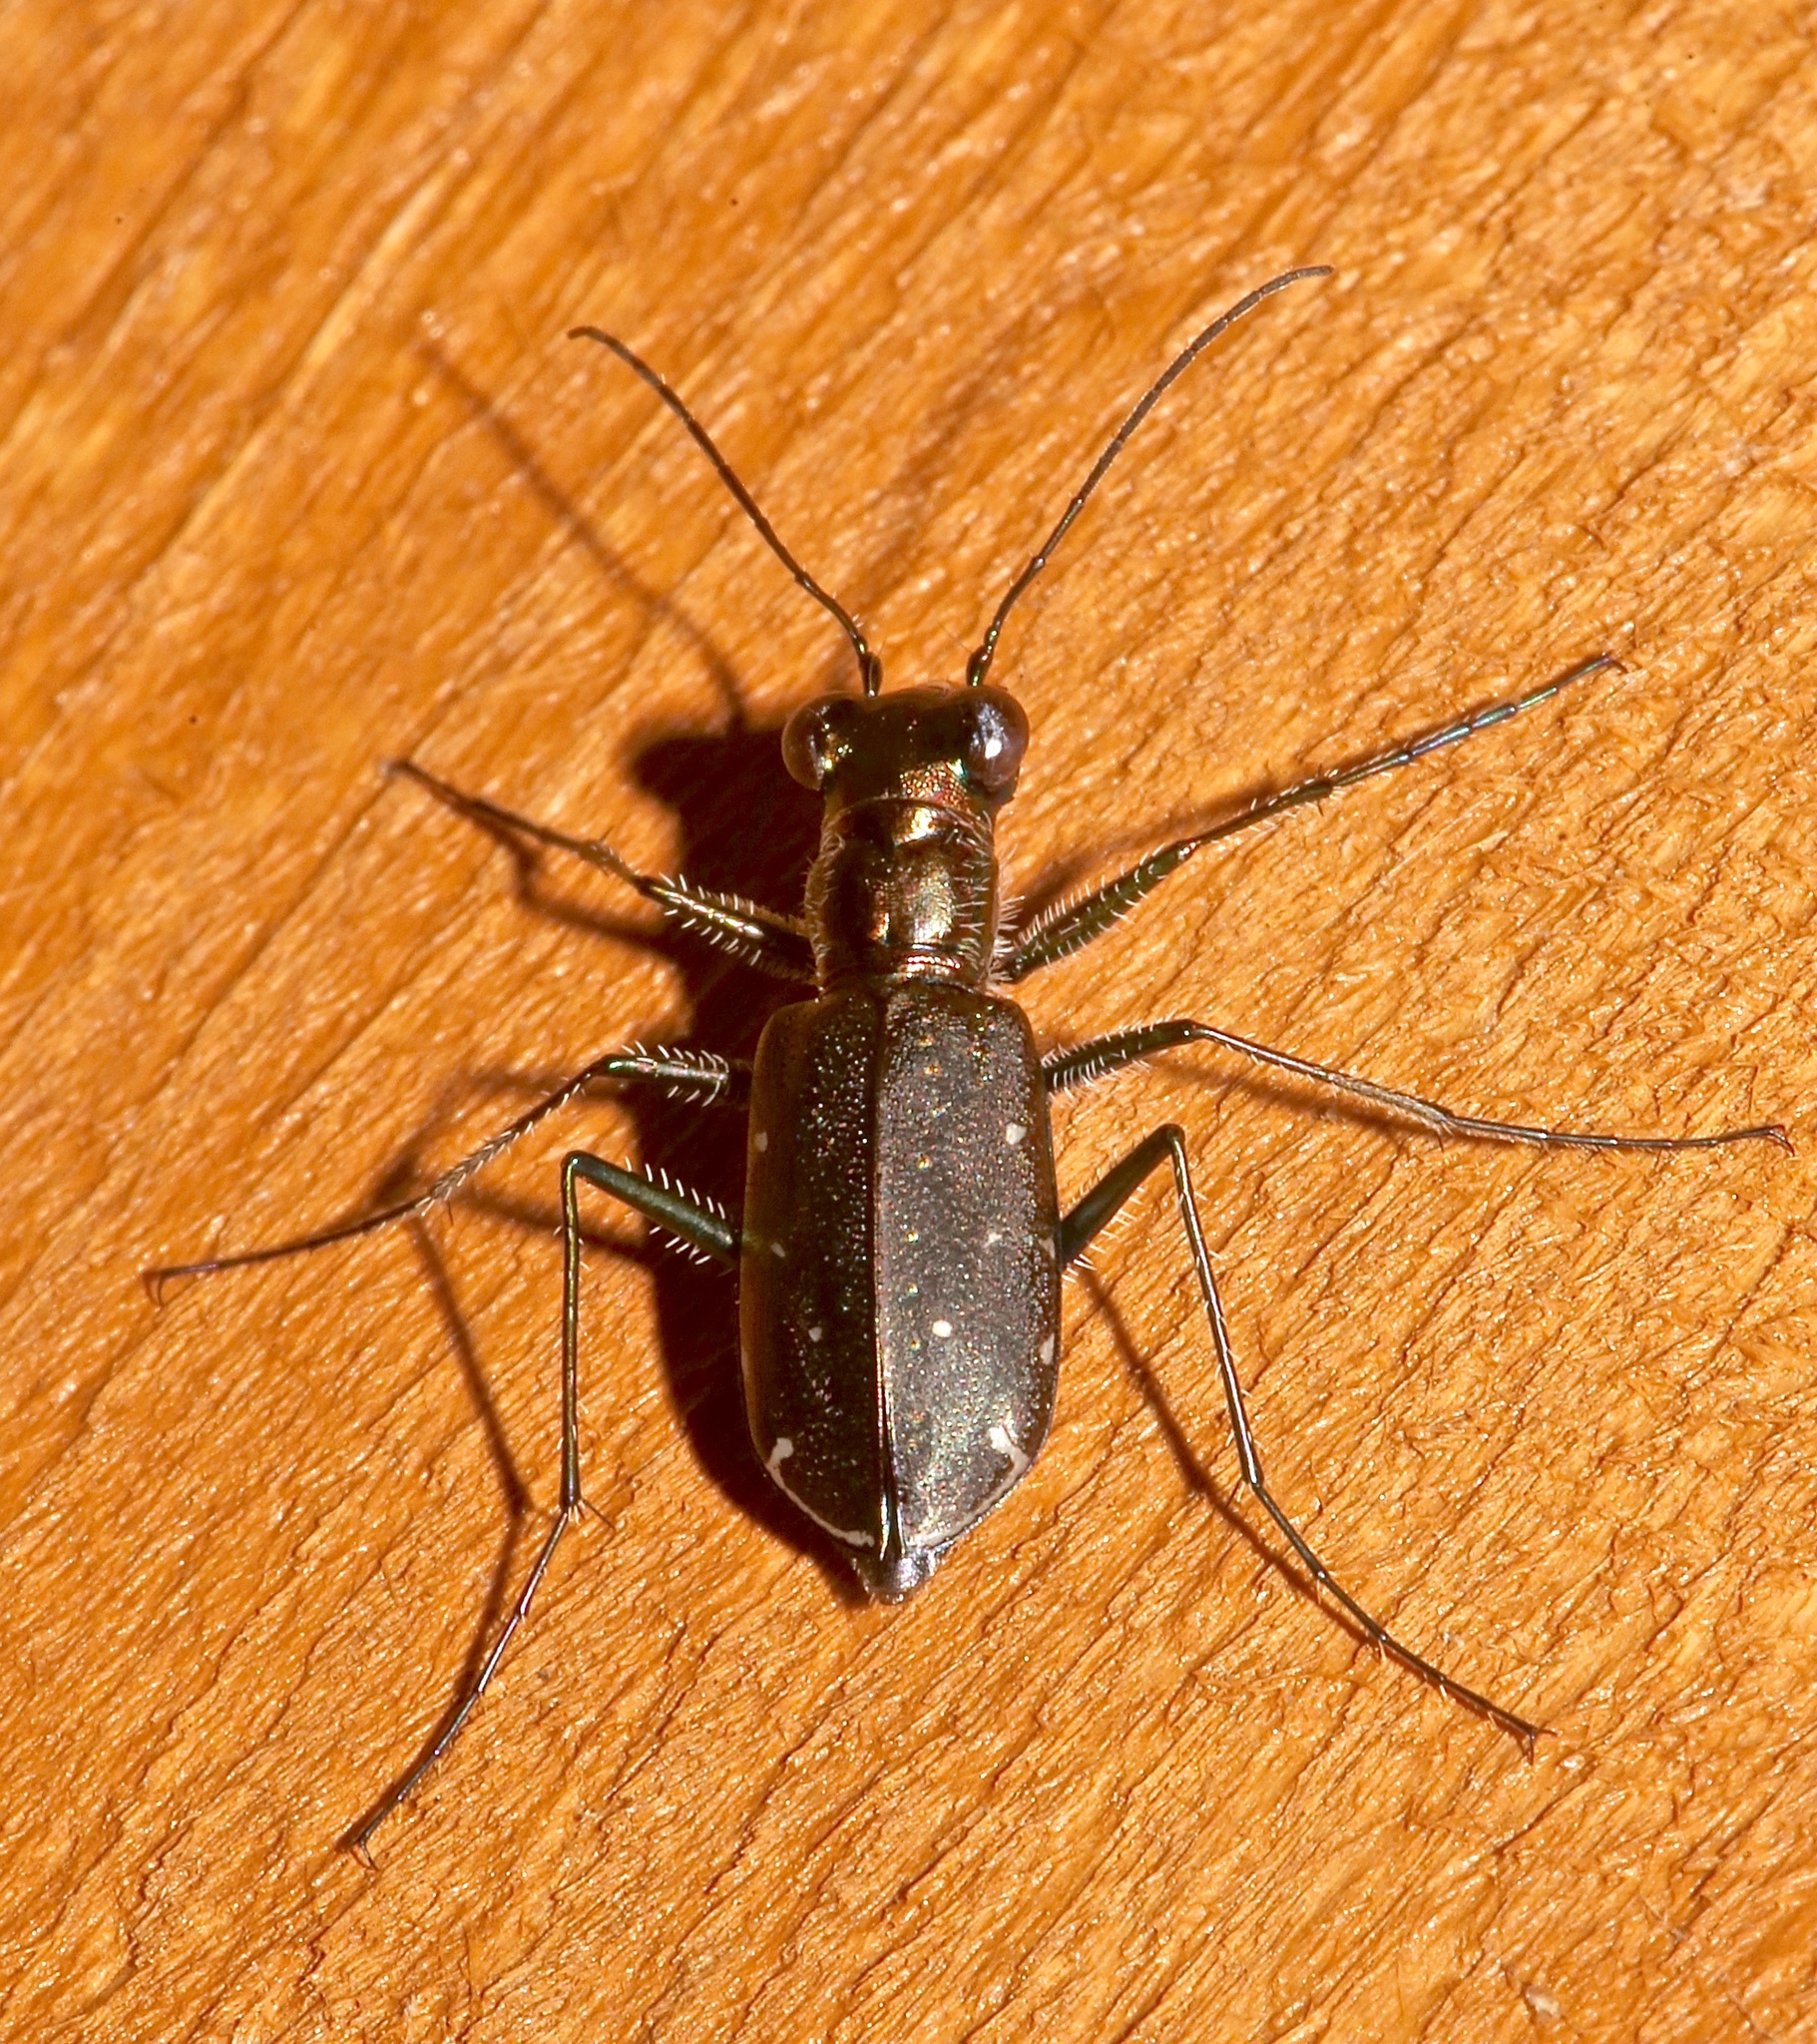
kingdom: Animalia
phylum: Arthropoda
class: Insecta
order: Coleoptera
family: Carabidae
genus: Cicindela
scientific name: Cicindela punctulata
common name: Punctured tiger beetle
